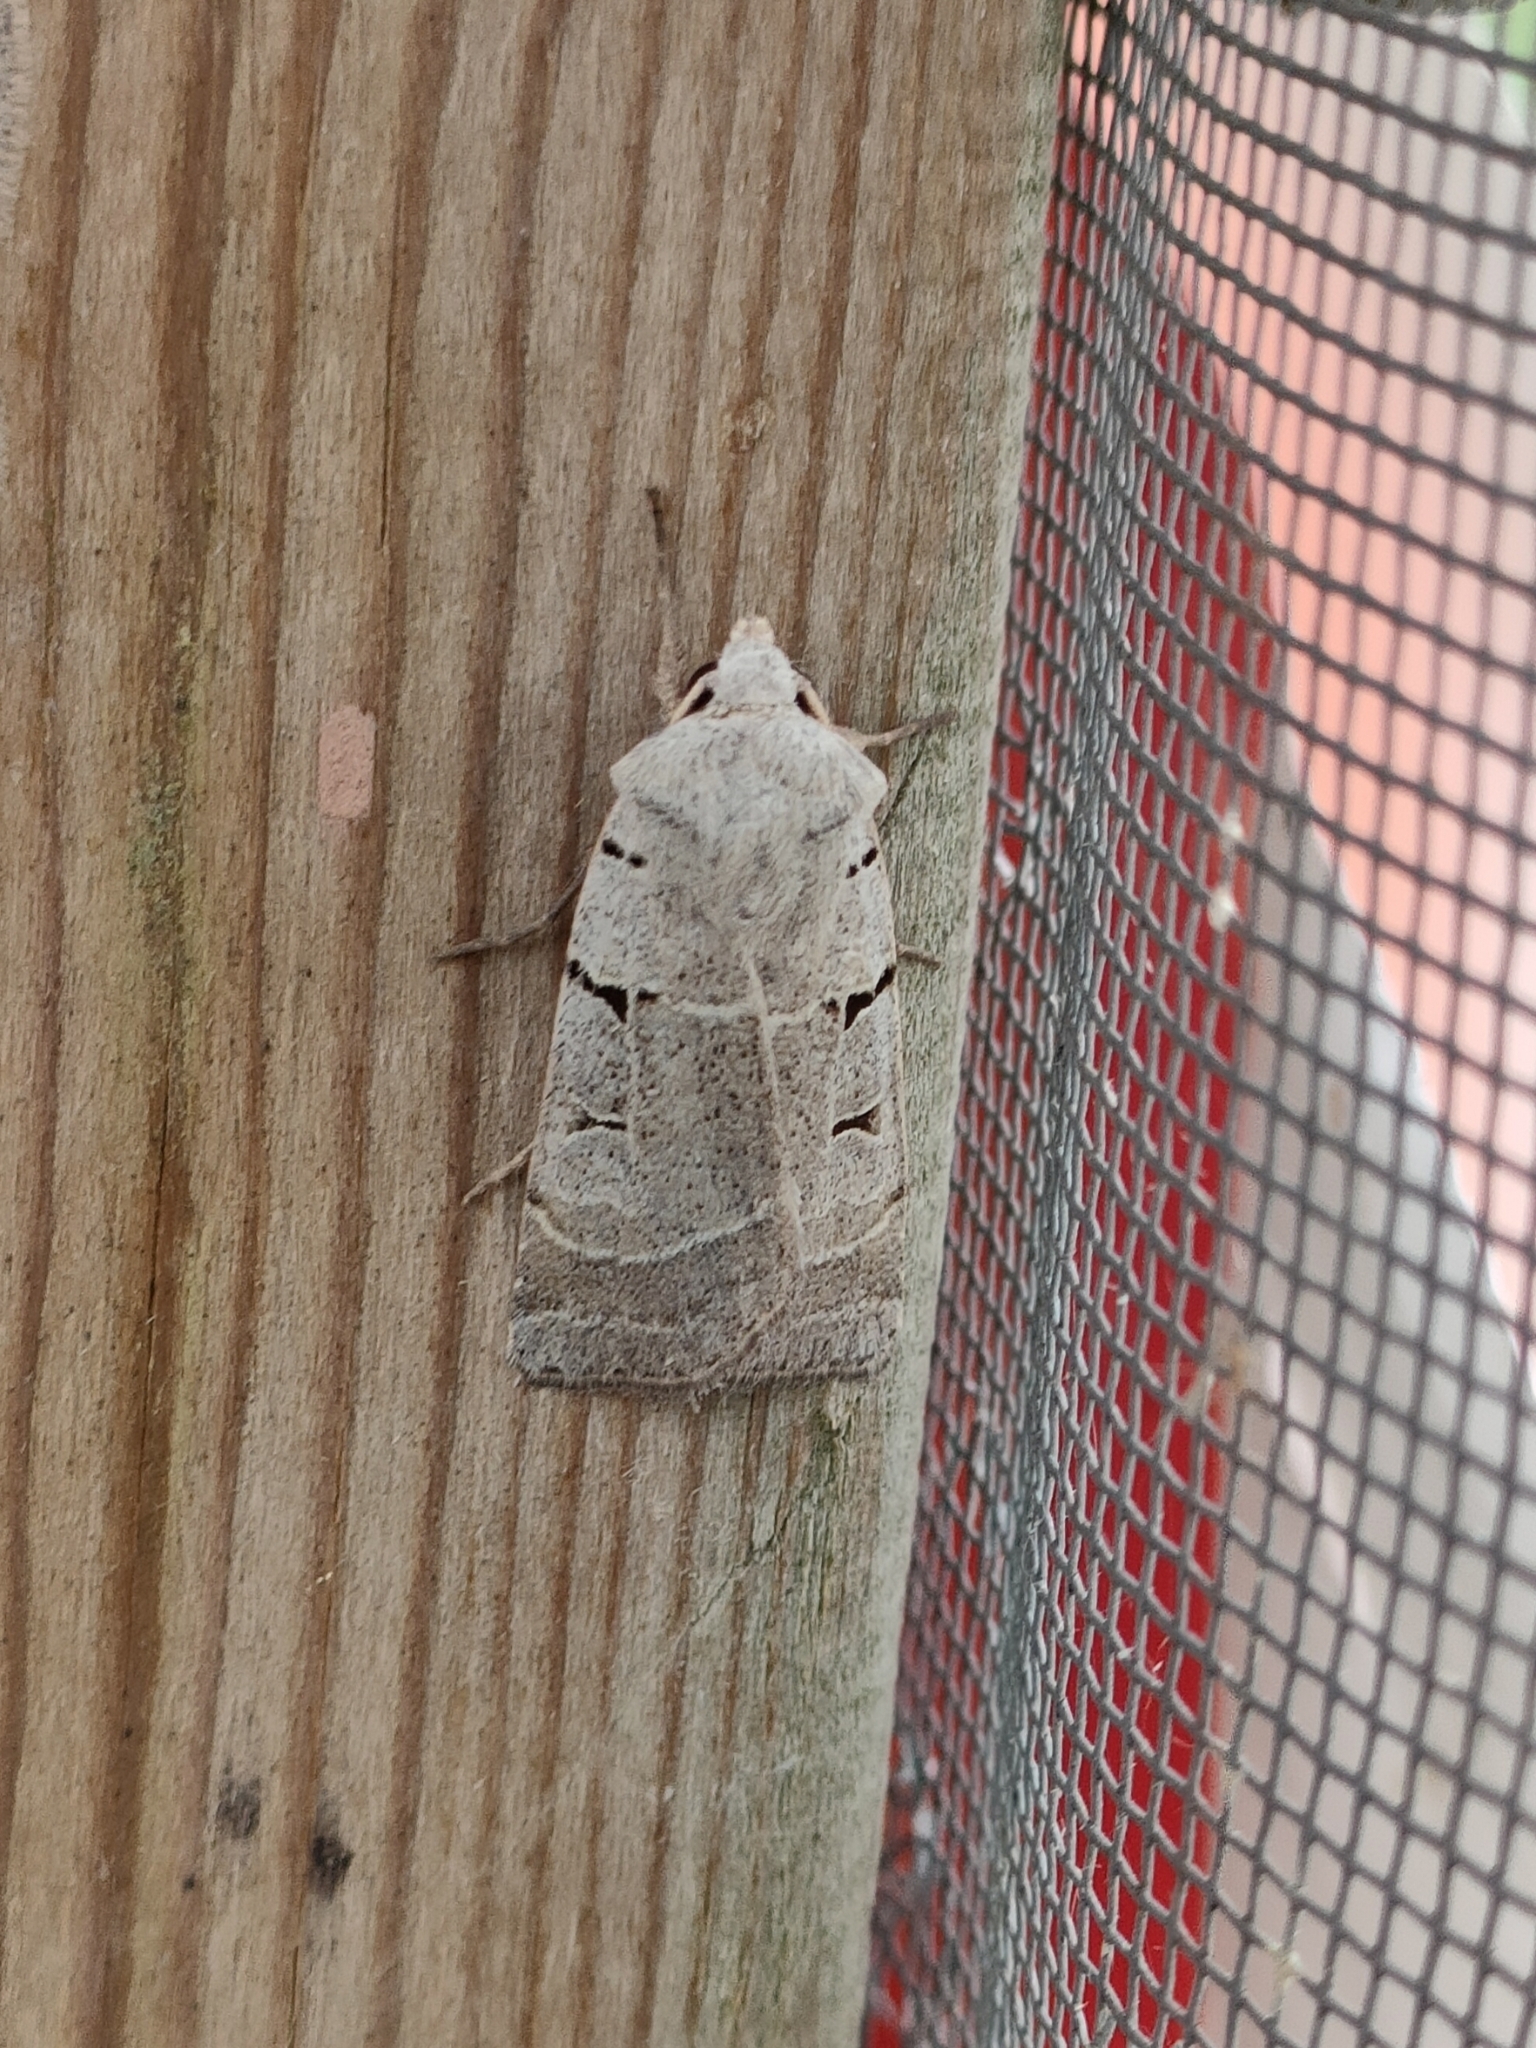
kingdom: Animalia
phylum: Arthropoda
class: Insecta
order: Lepidoptera
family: Noctuidae
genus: Eugnorisma
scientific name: Eugnorisma glareosa
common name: Autumnal rustic
